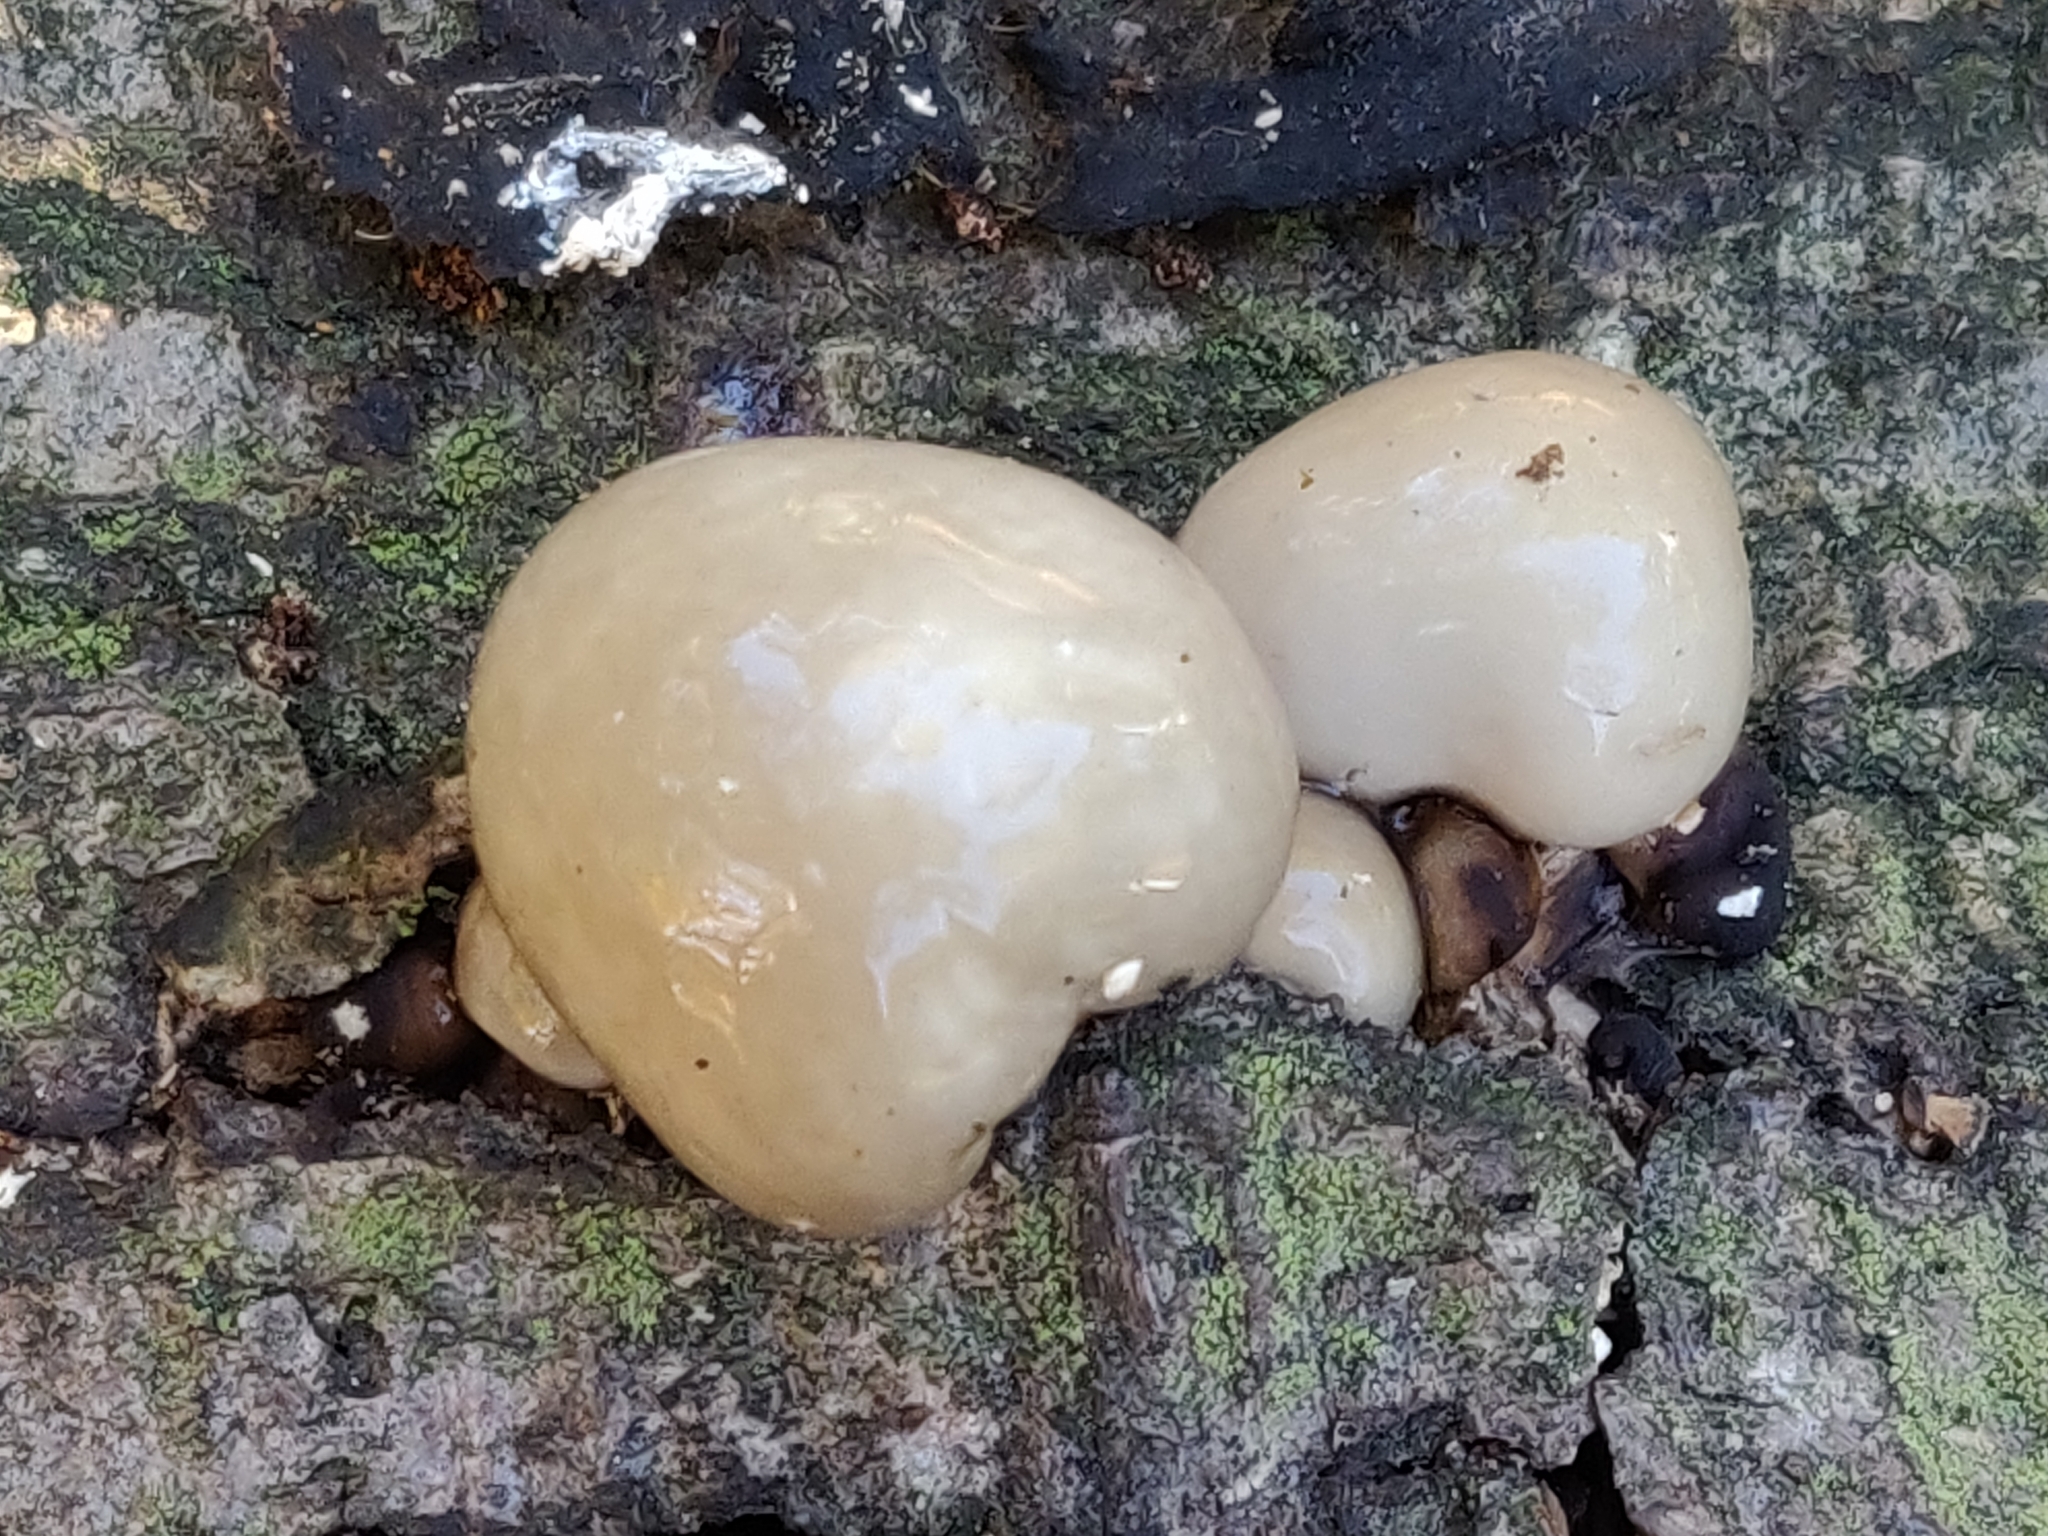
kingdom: Fungi
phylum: Basidiomycota
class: Agaricomycetes
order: Agaricales
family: Physalacriaceae
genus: Mucidula
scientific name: Mucidula mucida
